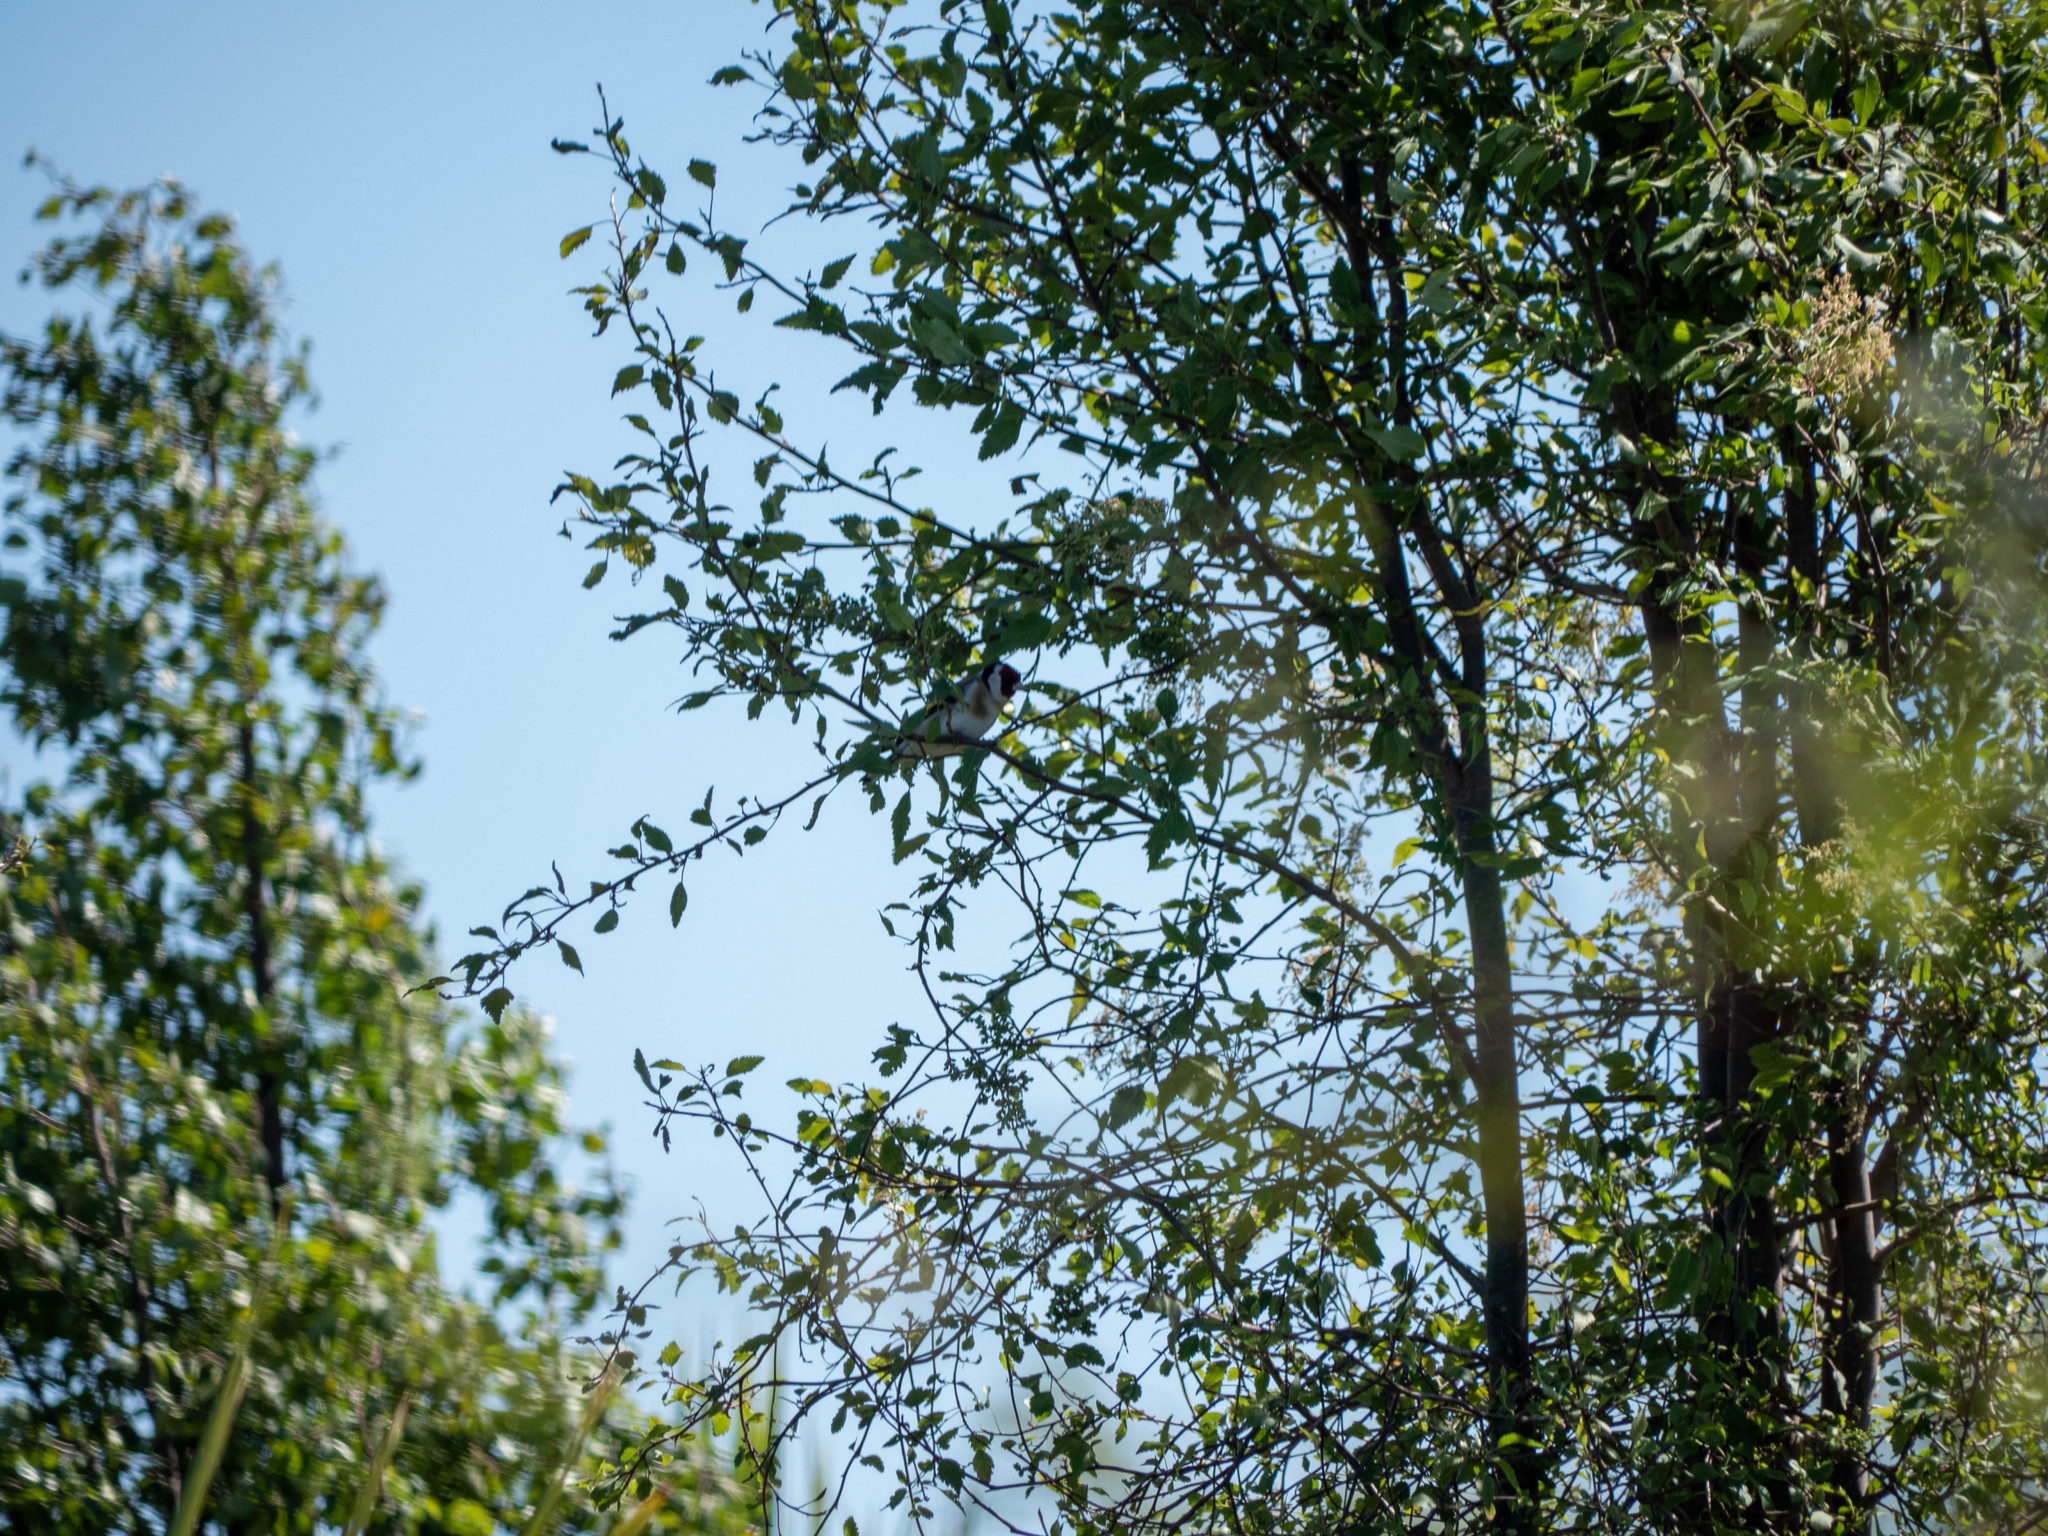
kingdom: Animalia
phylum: Chordata
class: Aves
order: Passeriformes
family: Fringillidae
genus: Carduelis
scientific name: Carduelis carduelis
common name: European goldfinch
